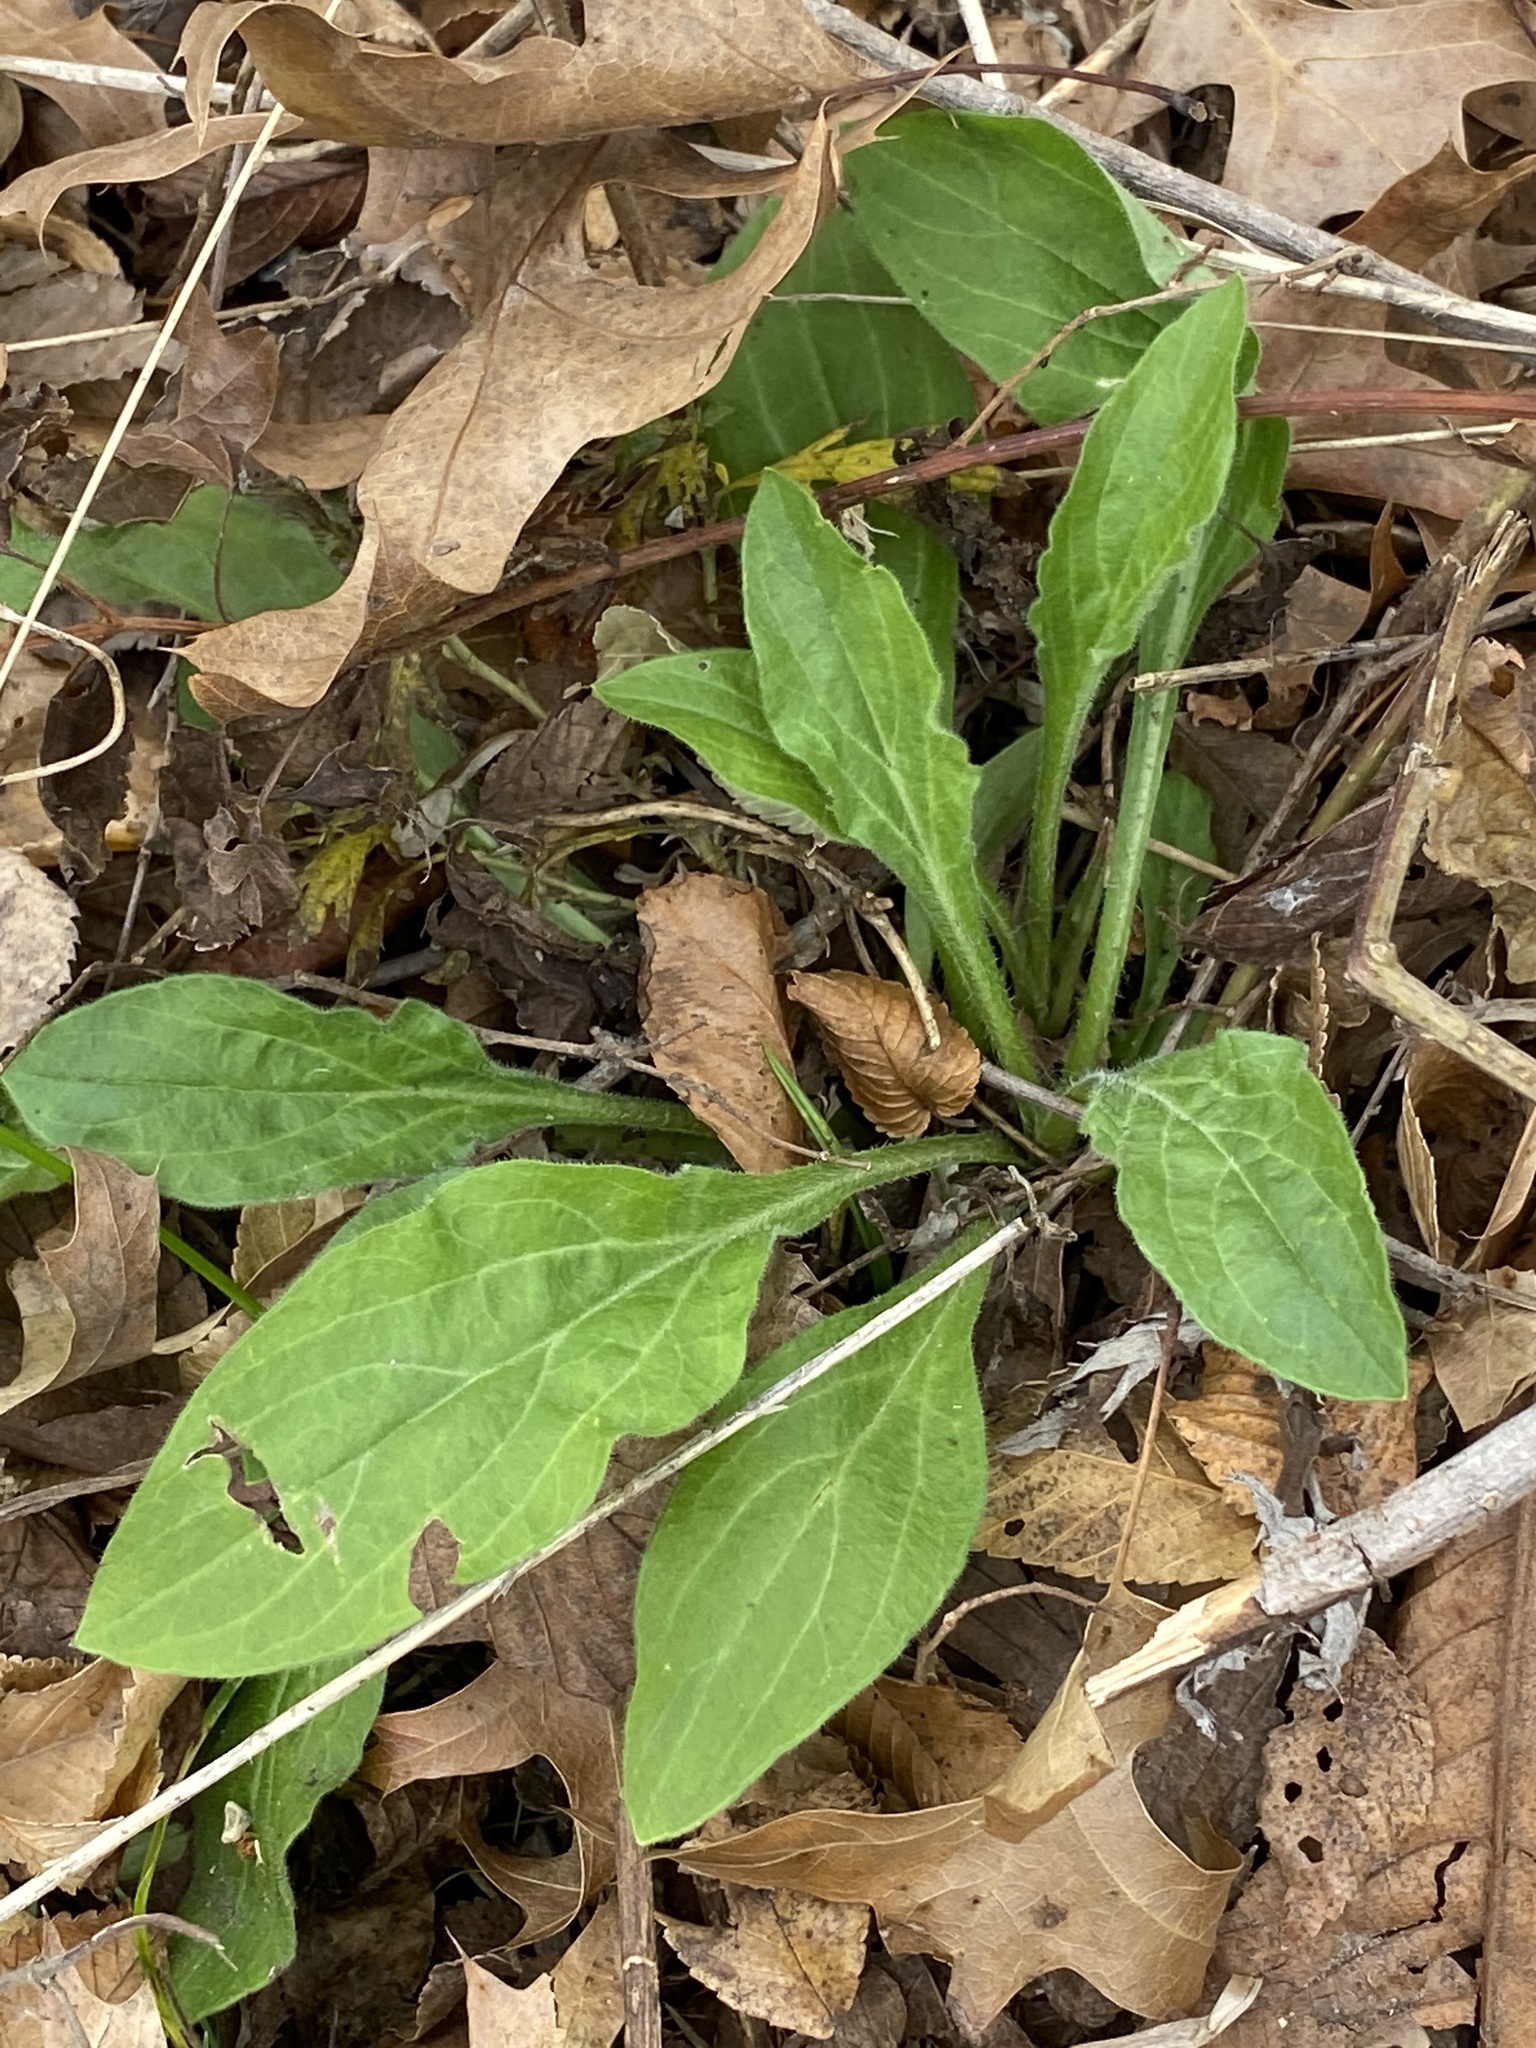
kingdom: Plantae
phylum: Tracheophyta
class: Magnoliopsida
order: Caryophyllales
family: Caryophyllaceae
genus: Silene
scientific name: Silene latifolia
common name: White campion
